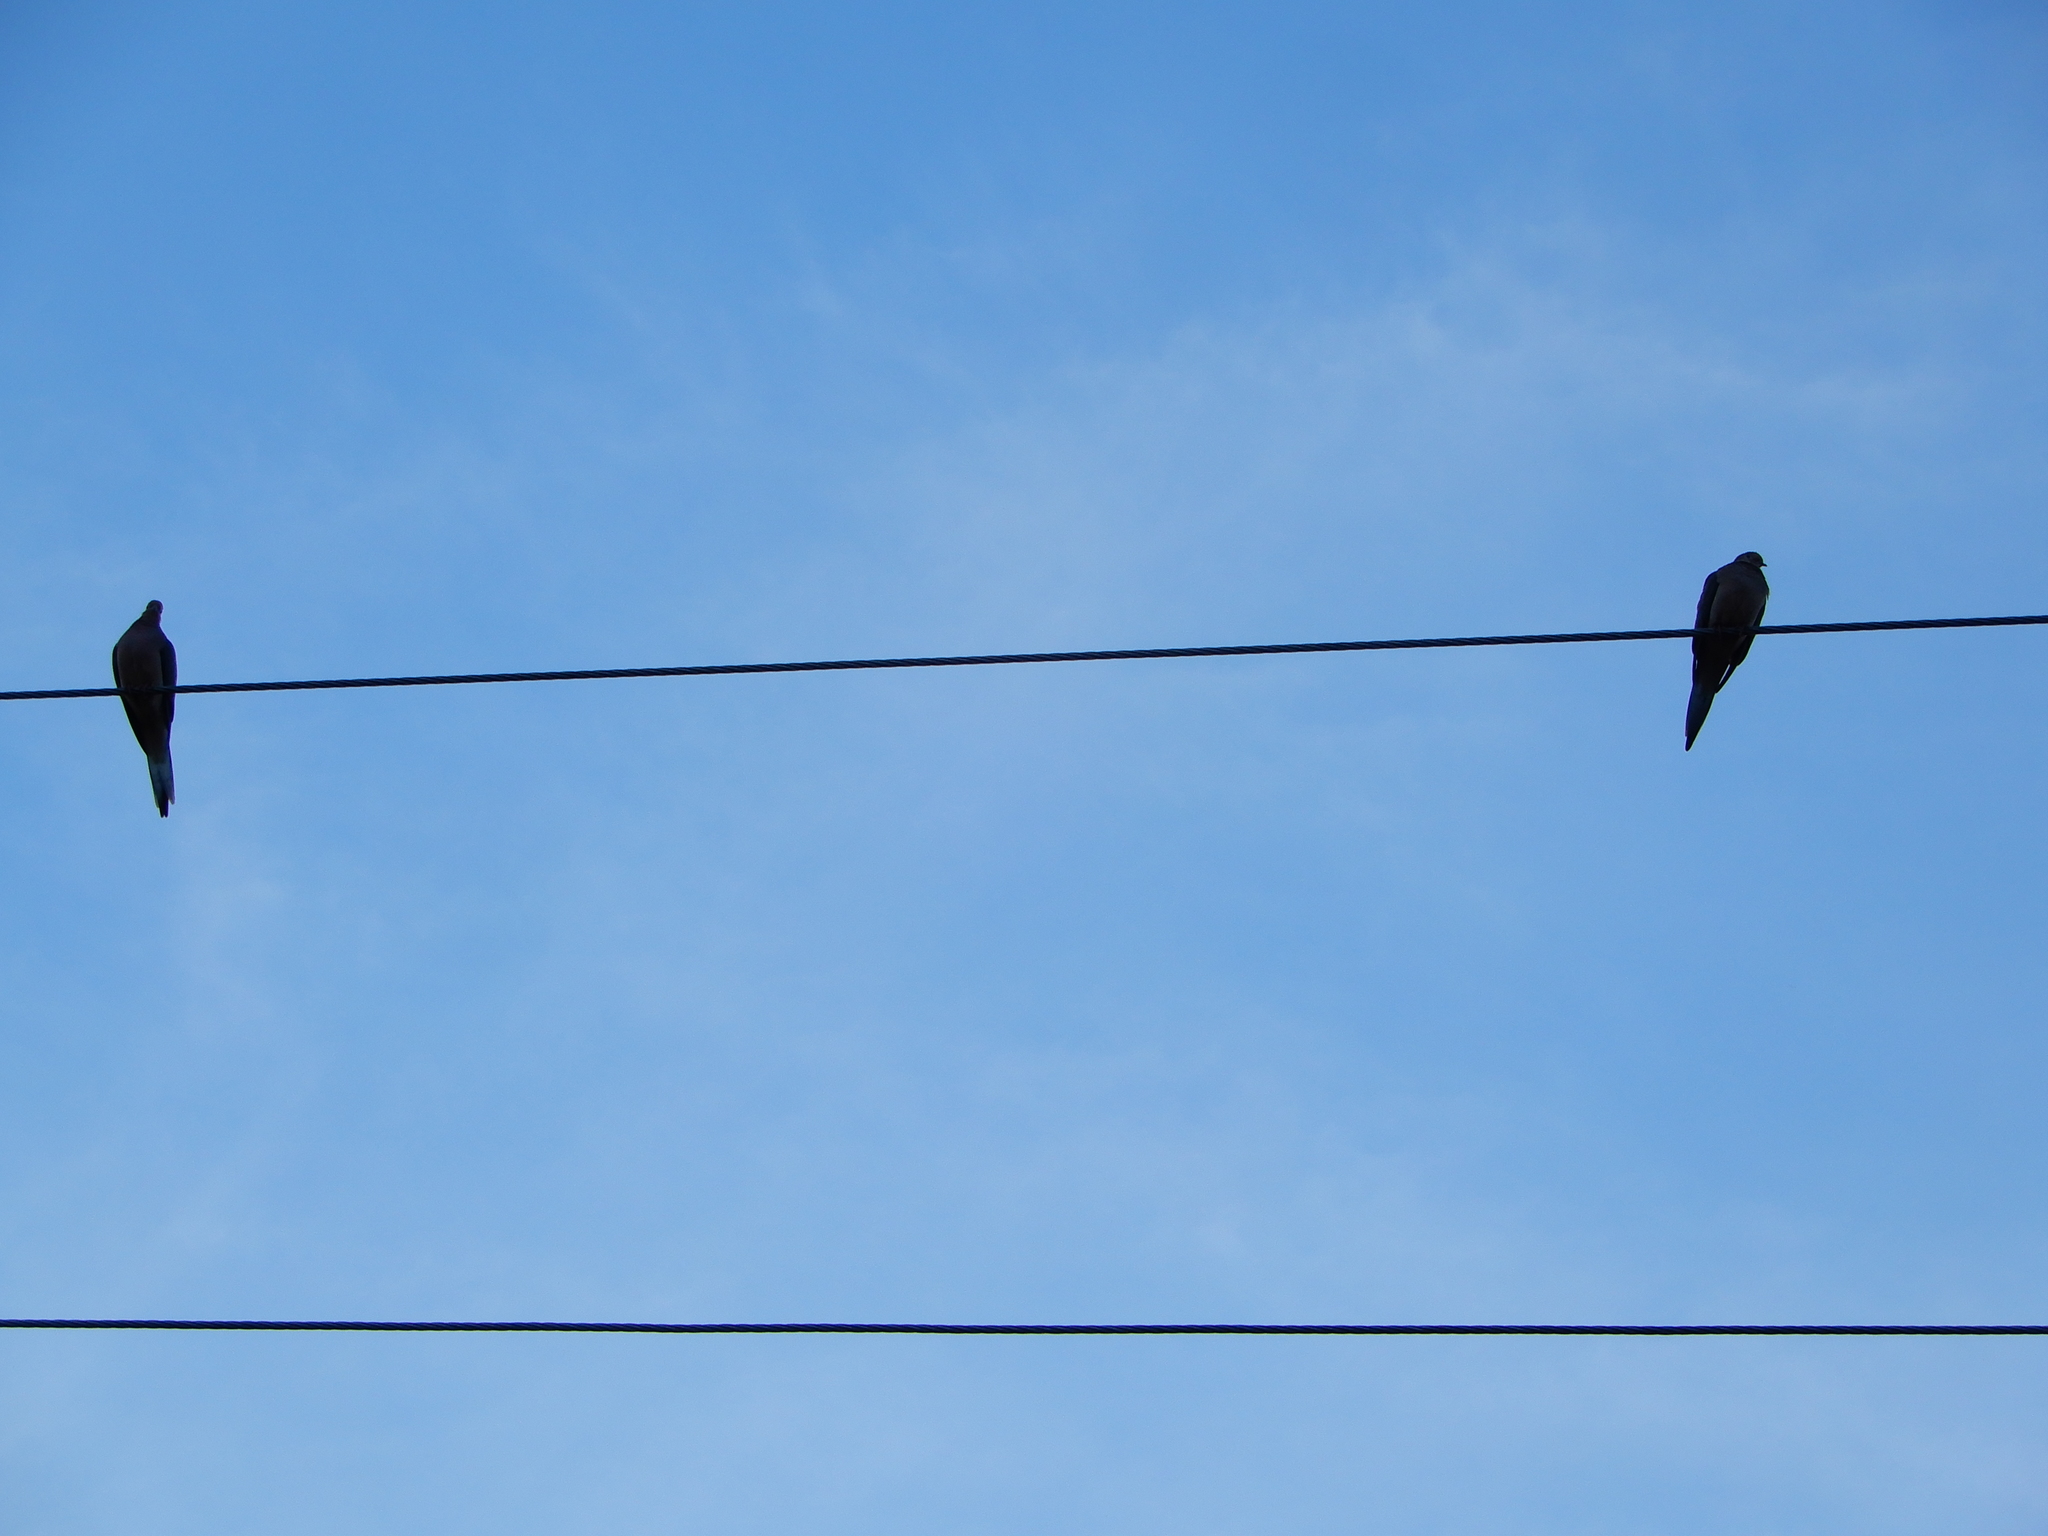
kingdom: Animalia
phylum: Chordata
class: Aves
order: Columbiformes
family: Columbidae
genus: Zenaida
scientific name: Zenaida macroura
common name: Mourning dove
